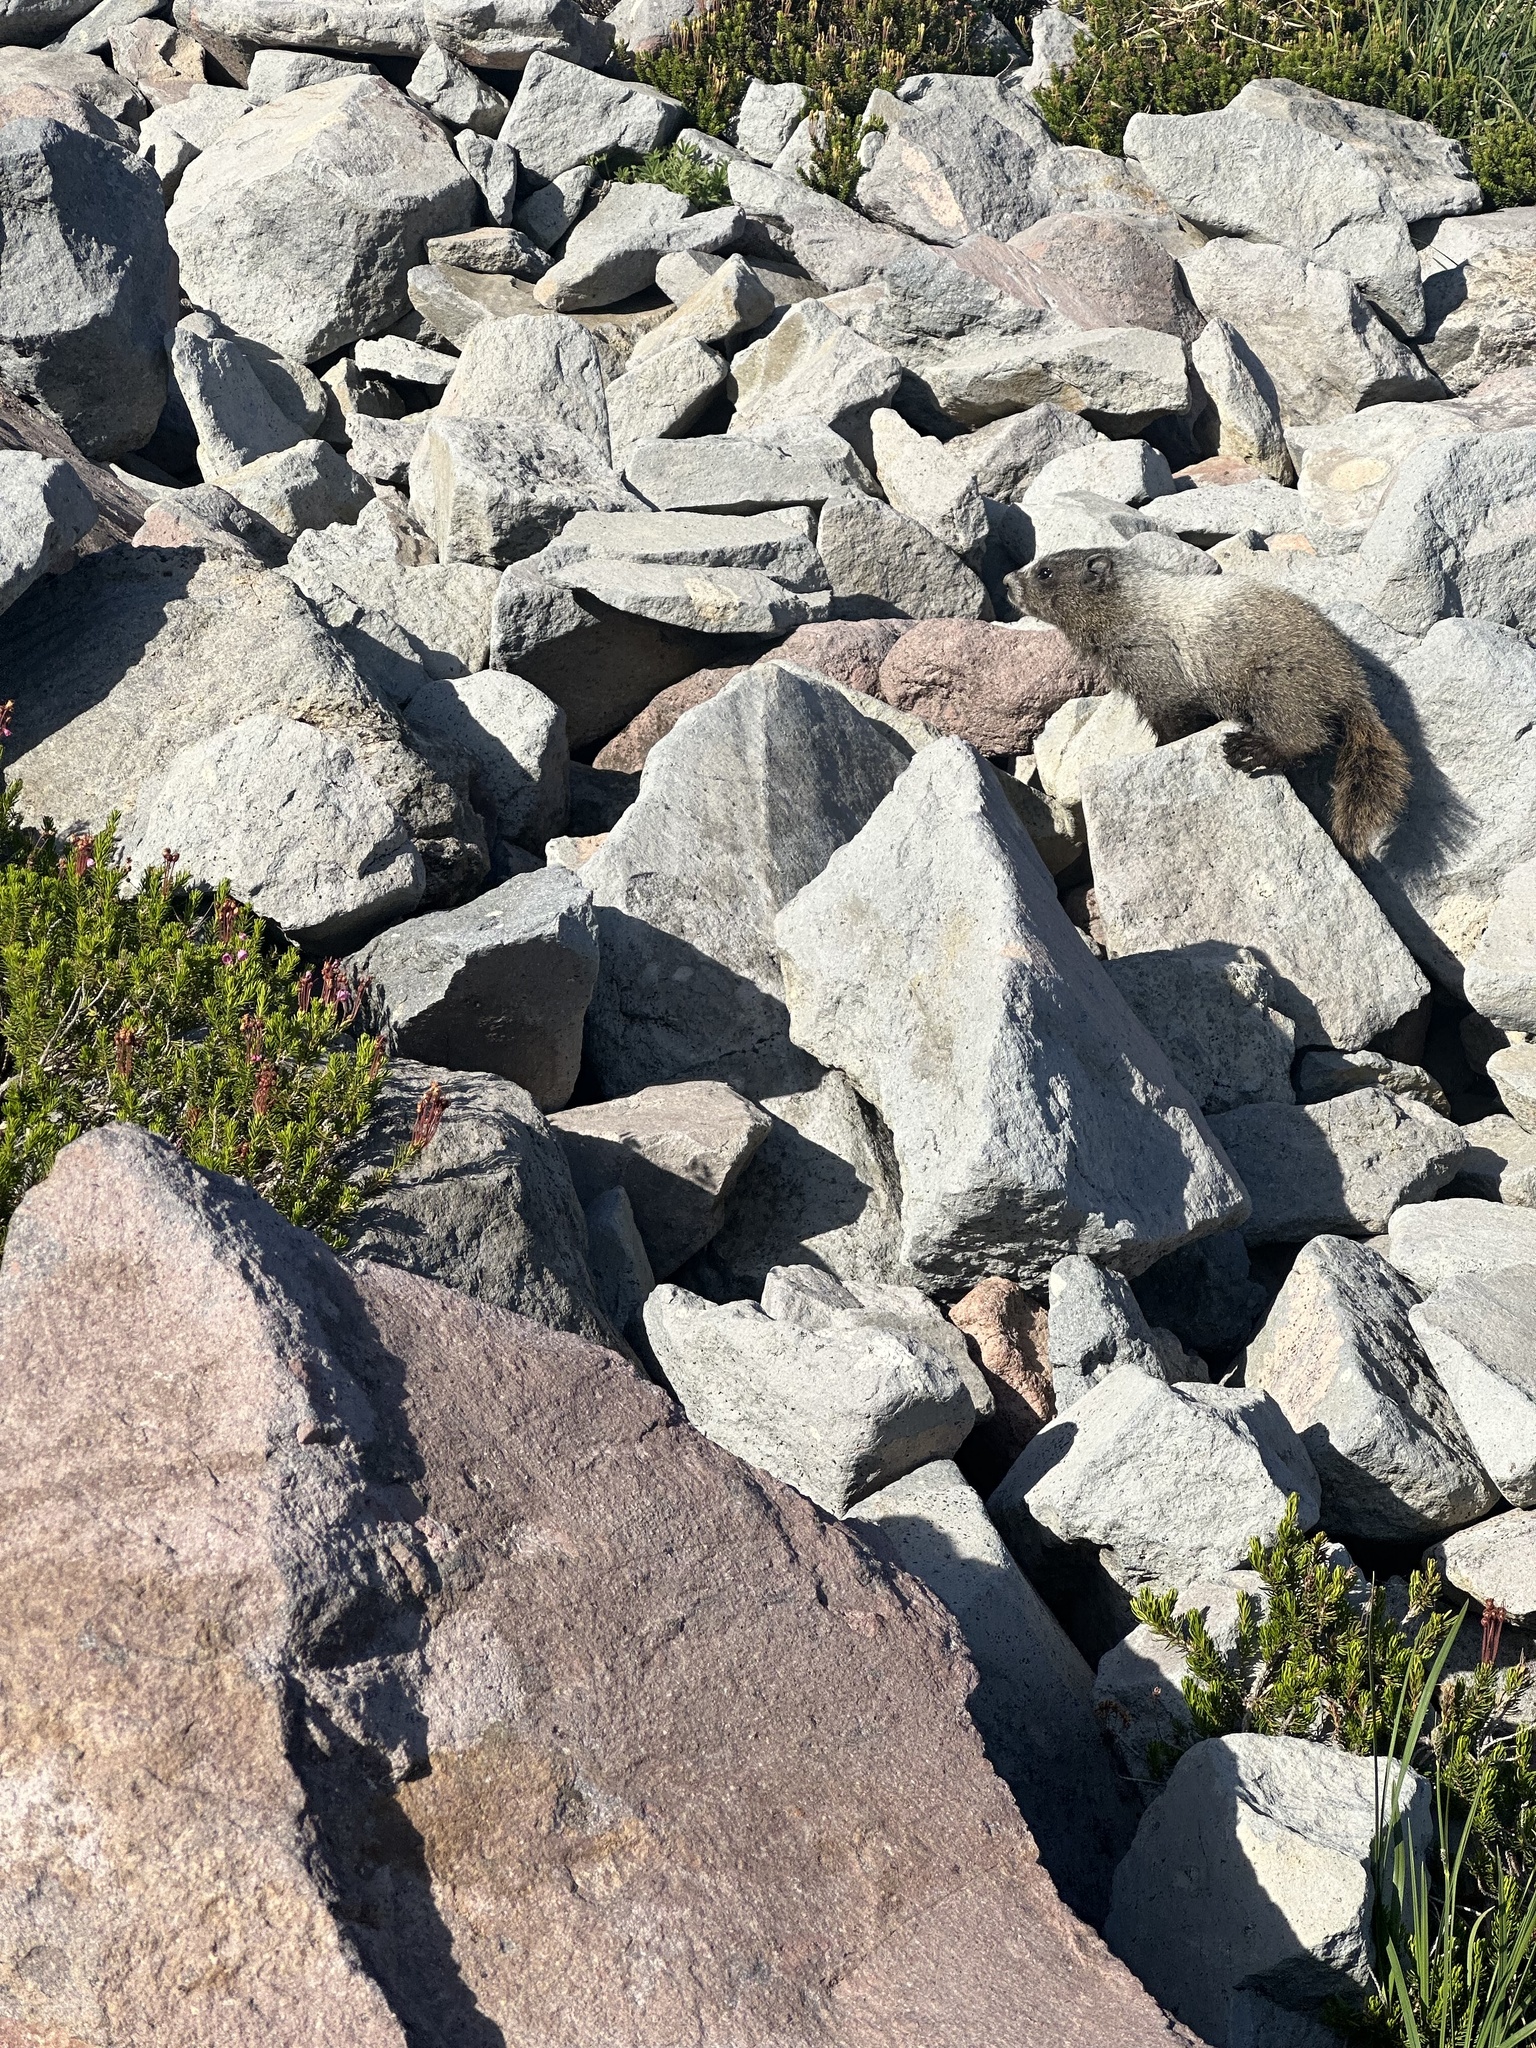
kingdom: Animalia
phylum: Chordata
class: Mammalia
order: Rodentia
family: Sciuridae
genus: Marmota
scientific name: Marmota caligata
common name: Hoary marmot
